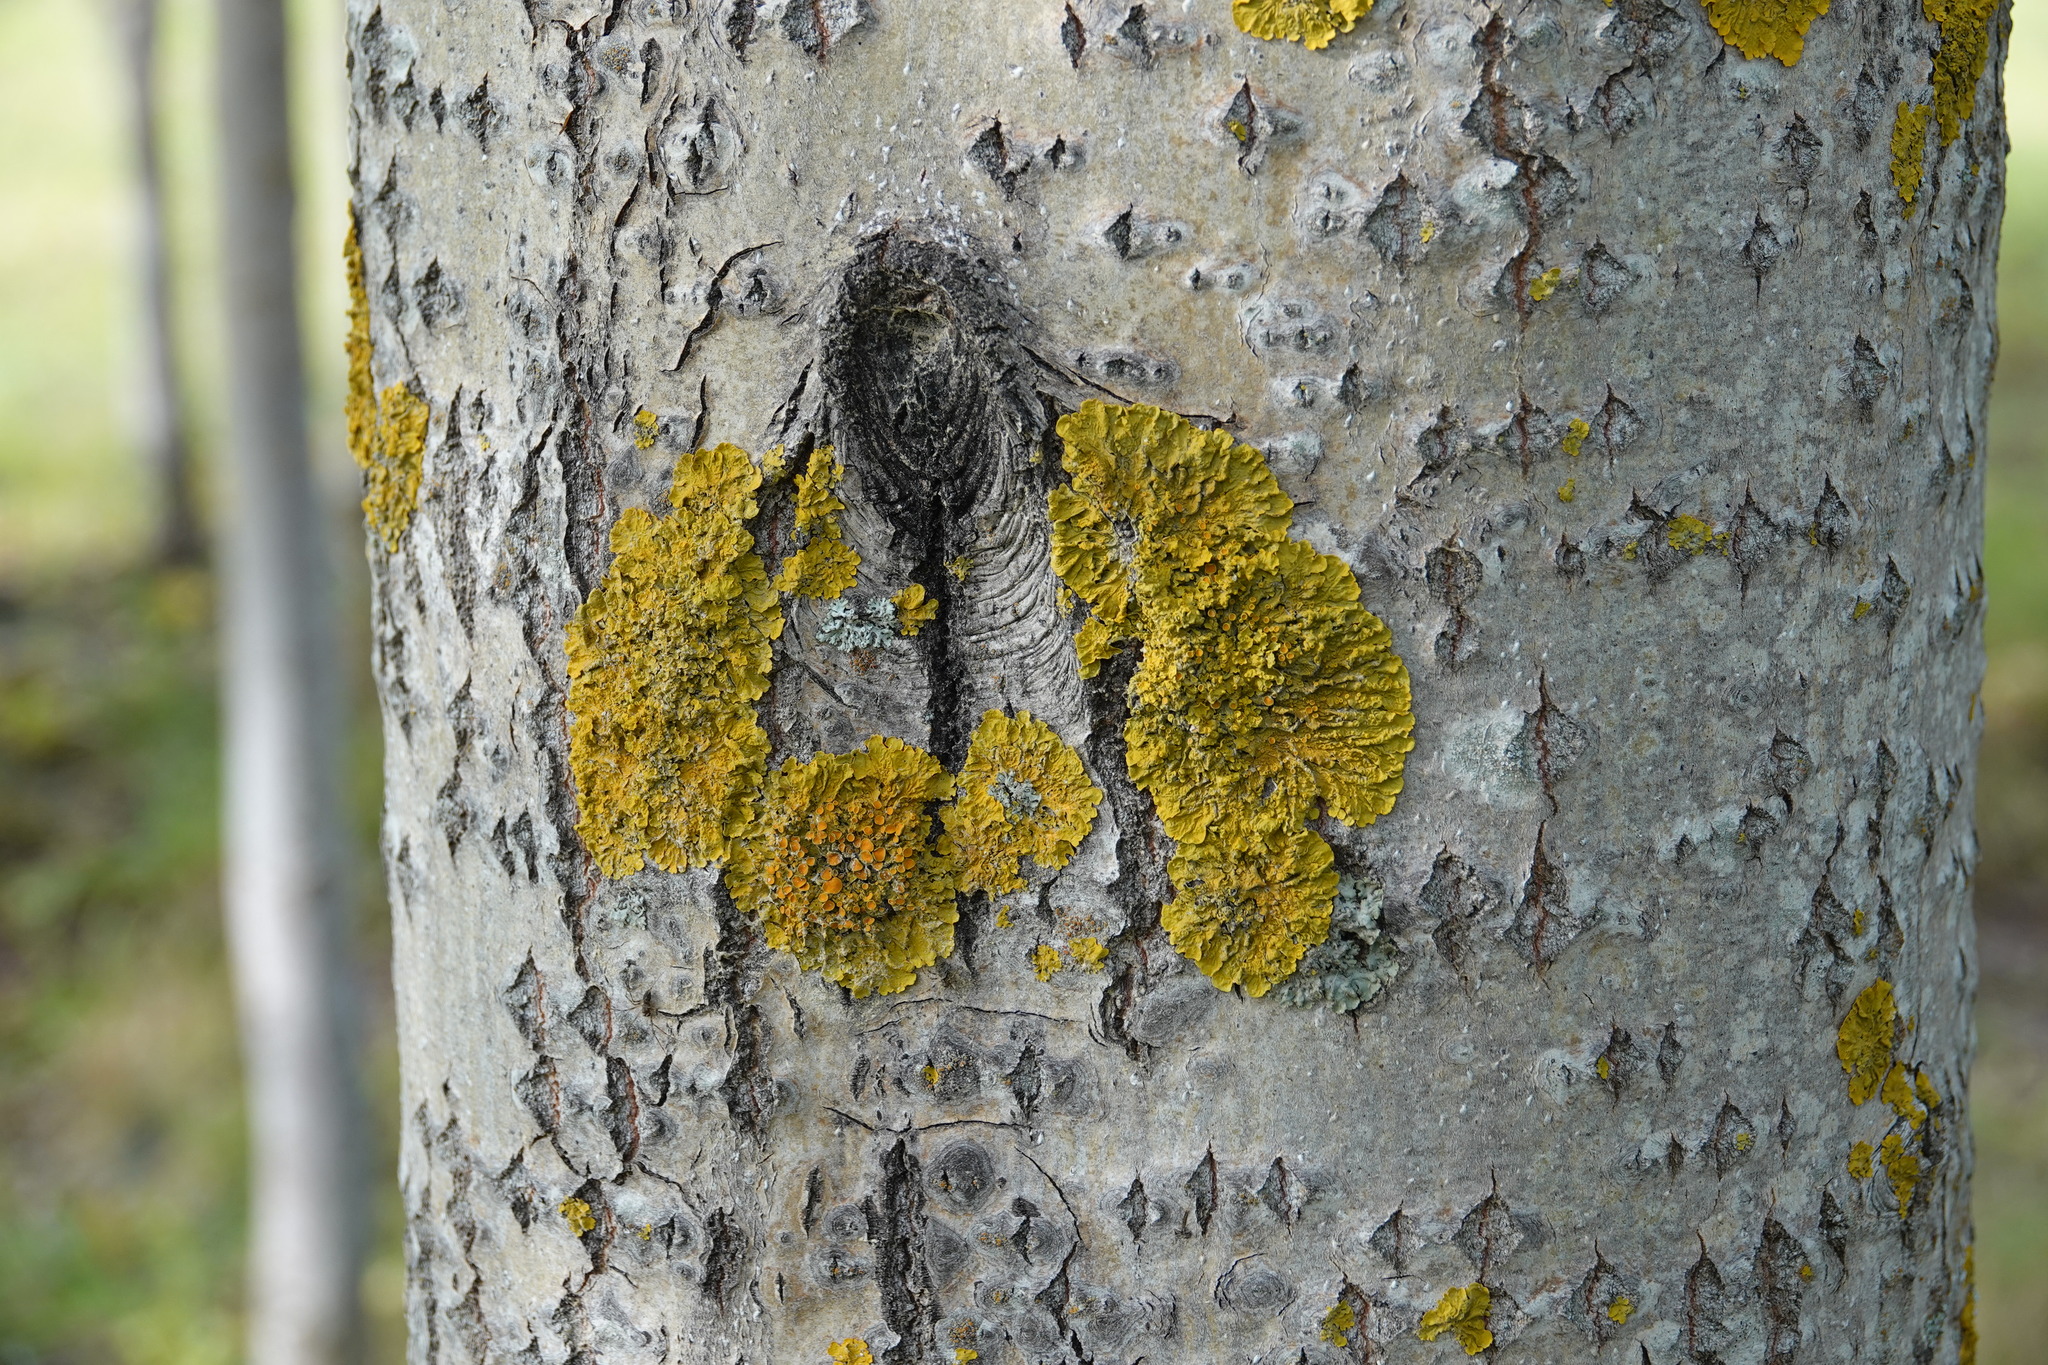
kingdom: Fungi
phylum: Ascomycota
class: Lecanoromycetes
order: Teloschistales
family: Teloschistaceae
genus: Xanthoria
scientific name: Xanthoria parietina
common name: Common orange lichen
